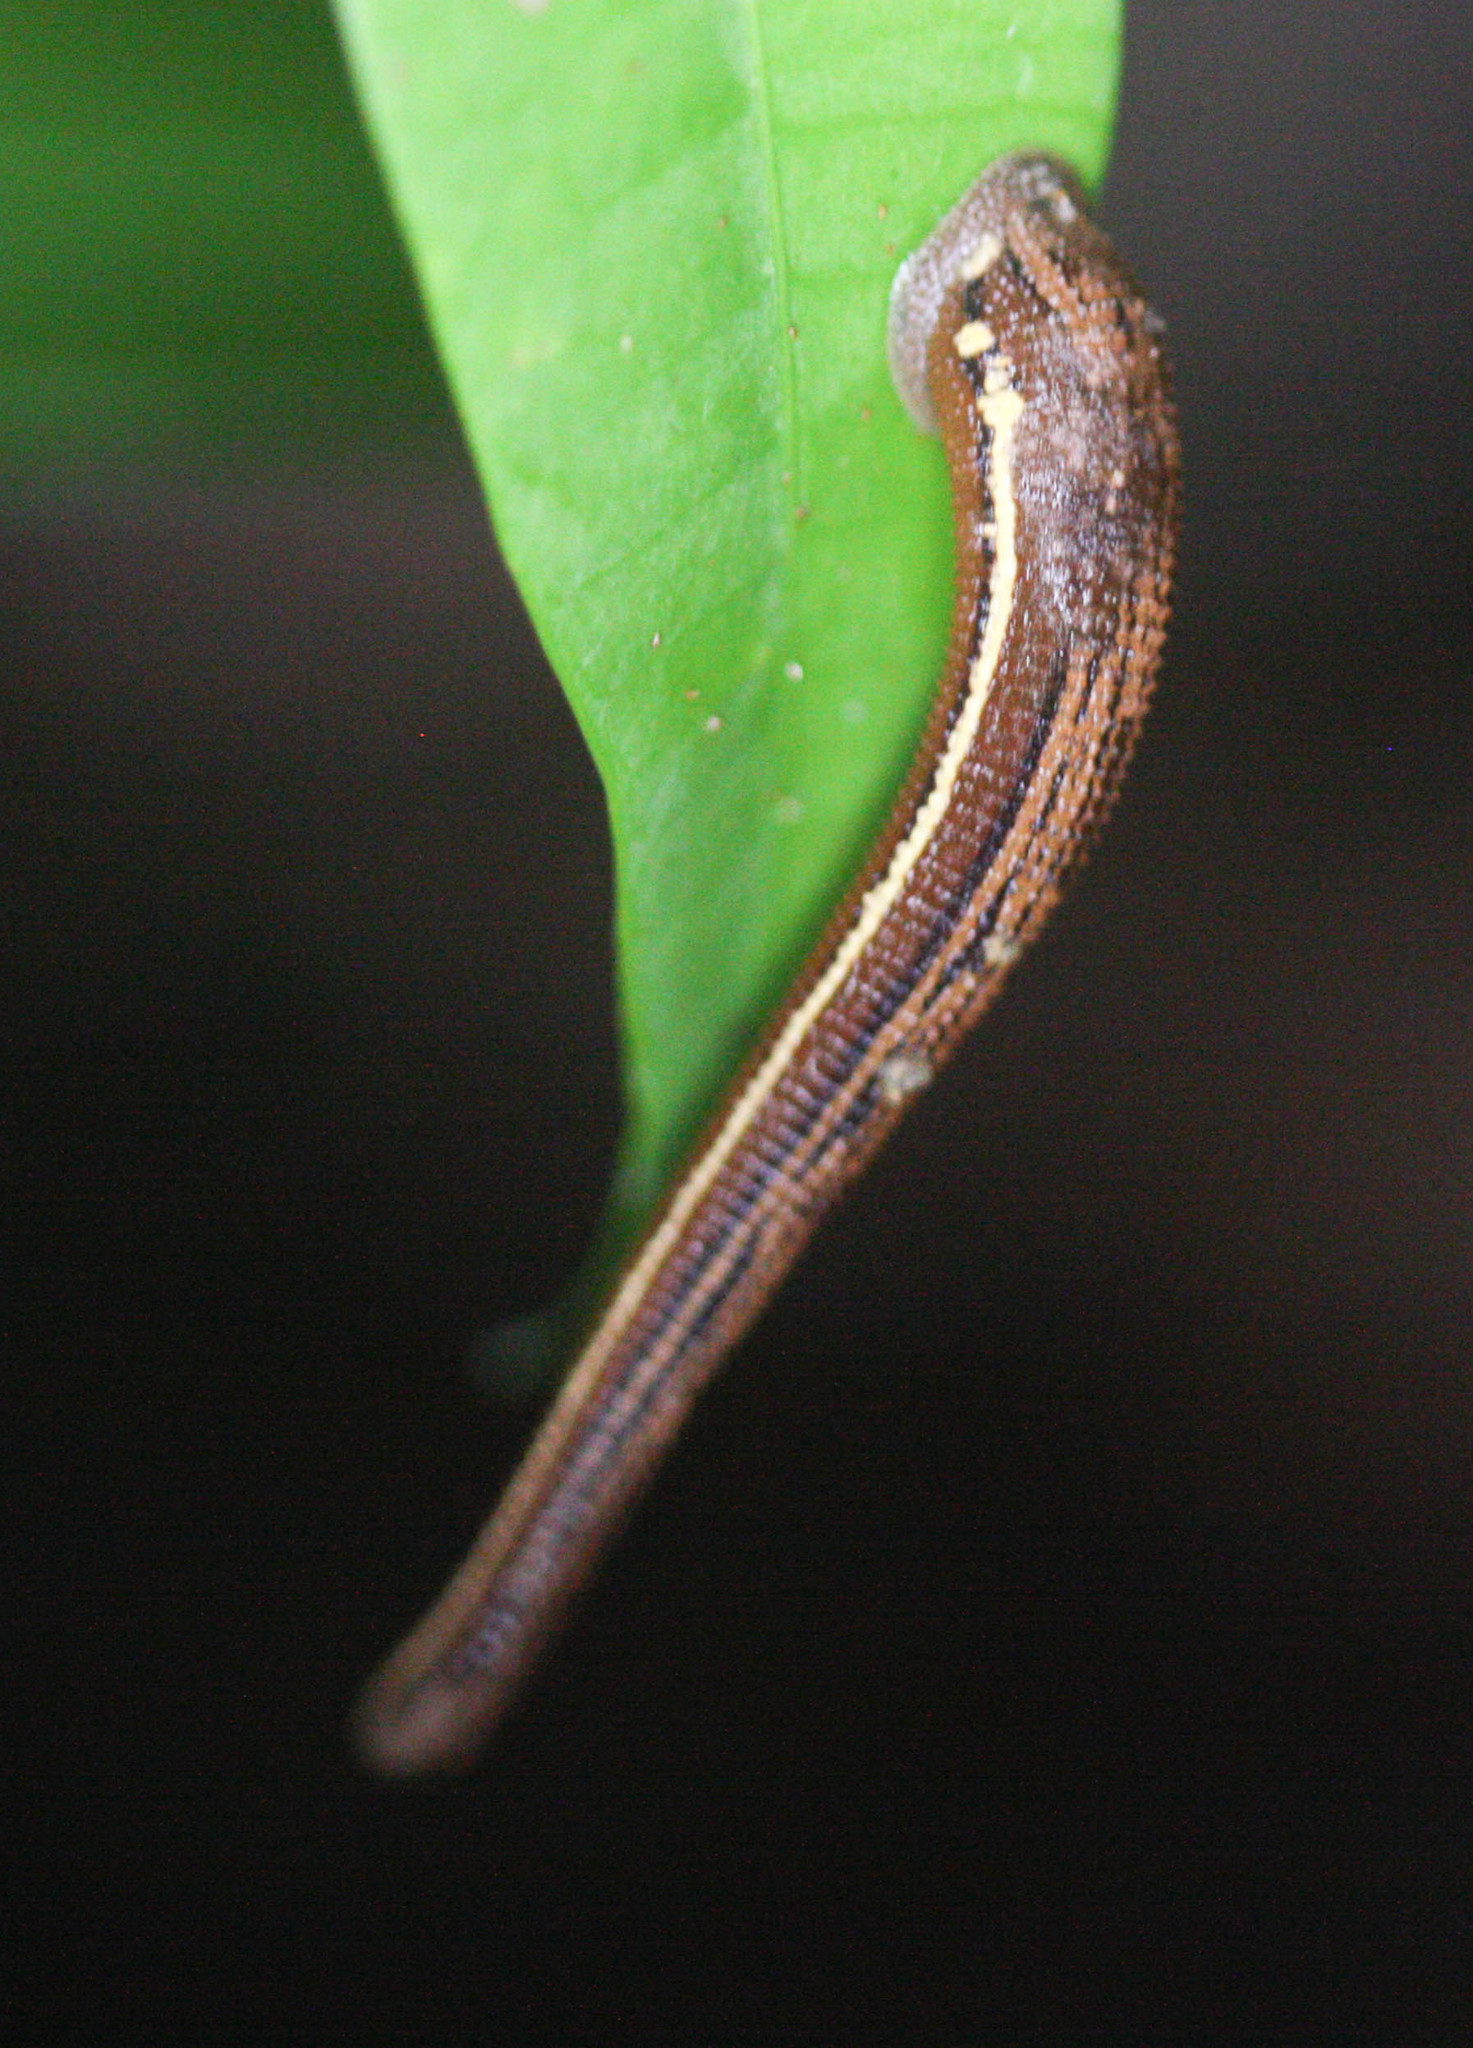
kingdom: Animalia
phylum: Annelida
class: Clitellata
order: Arhynchobdellida
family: Haemadipsidae
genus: Haemadipsa
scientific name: Haemadipsa picta
